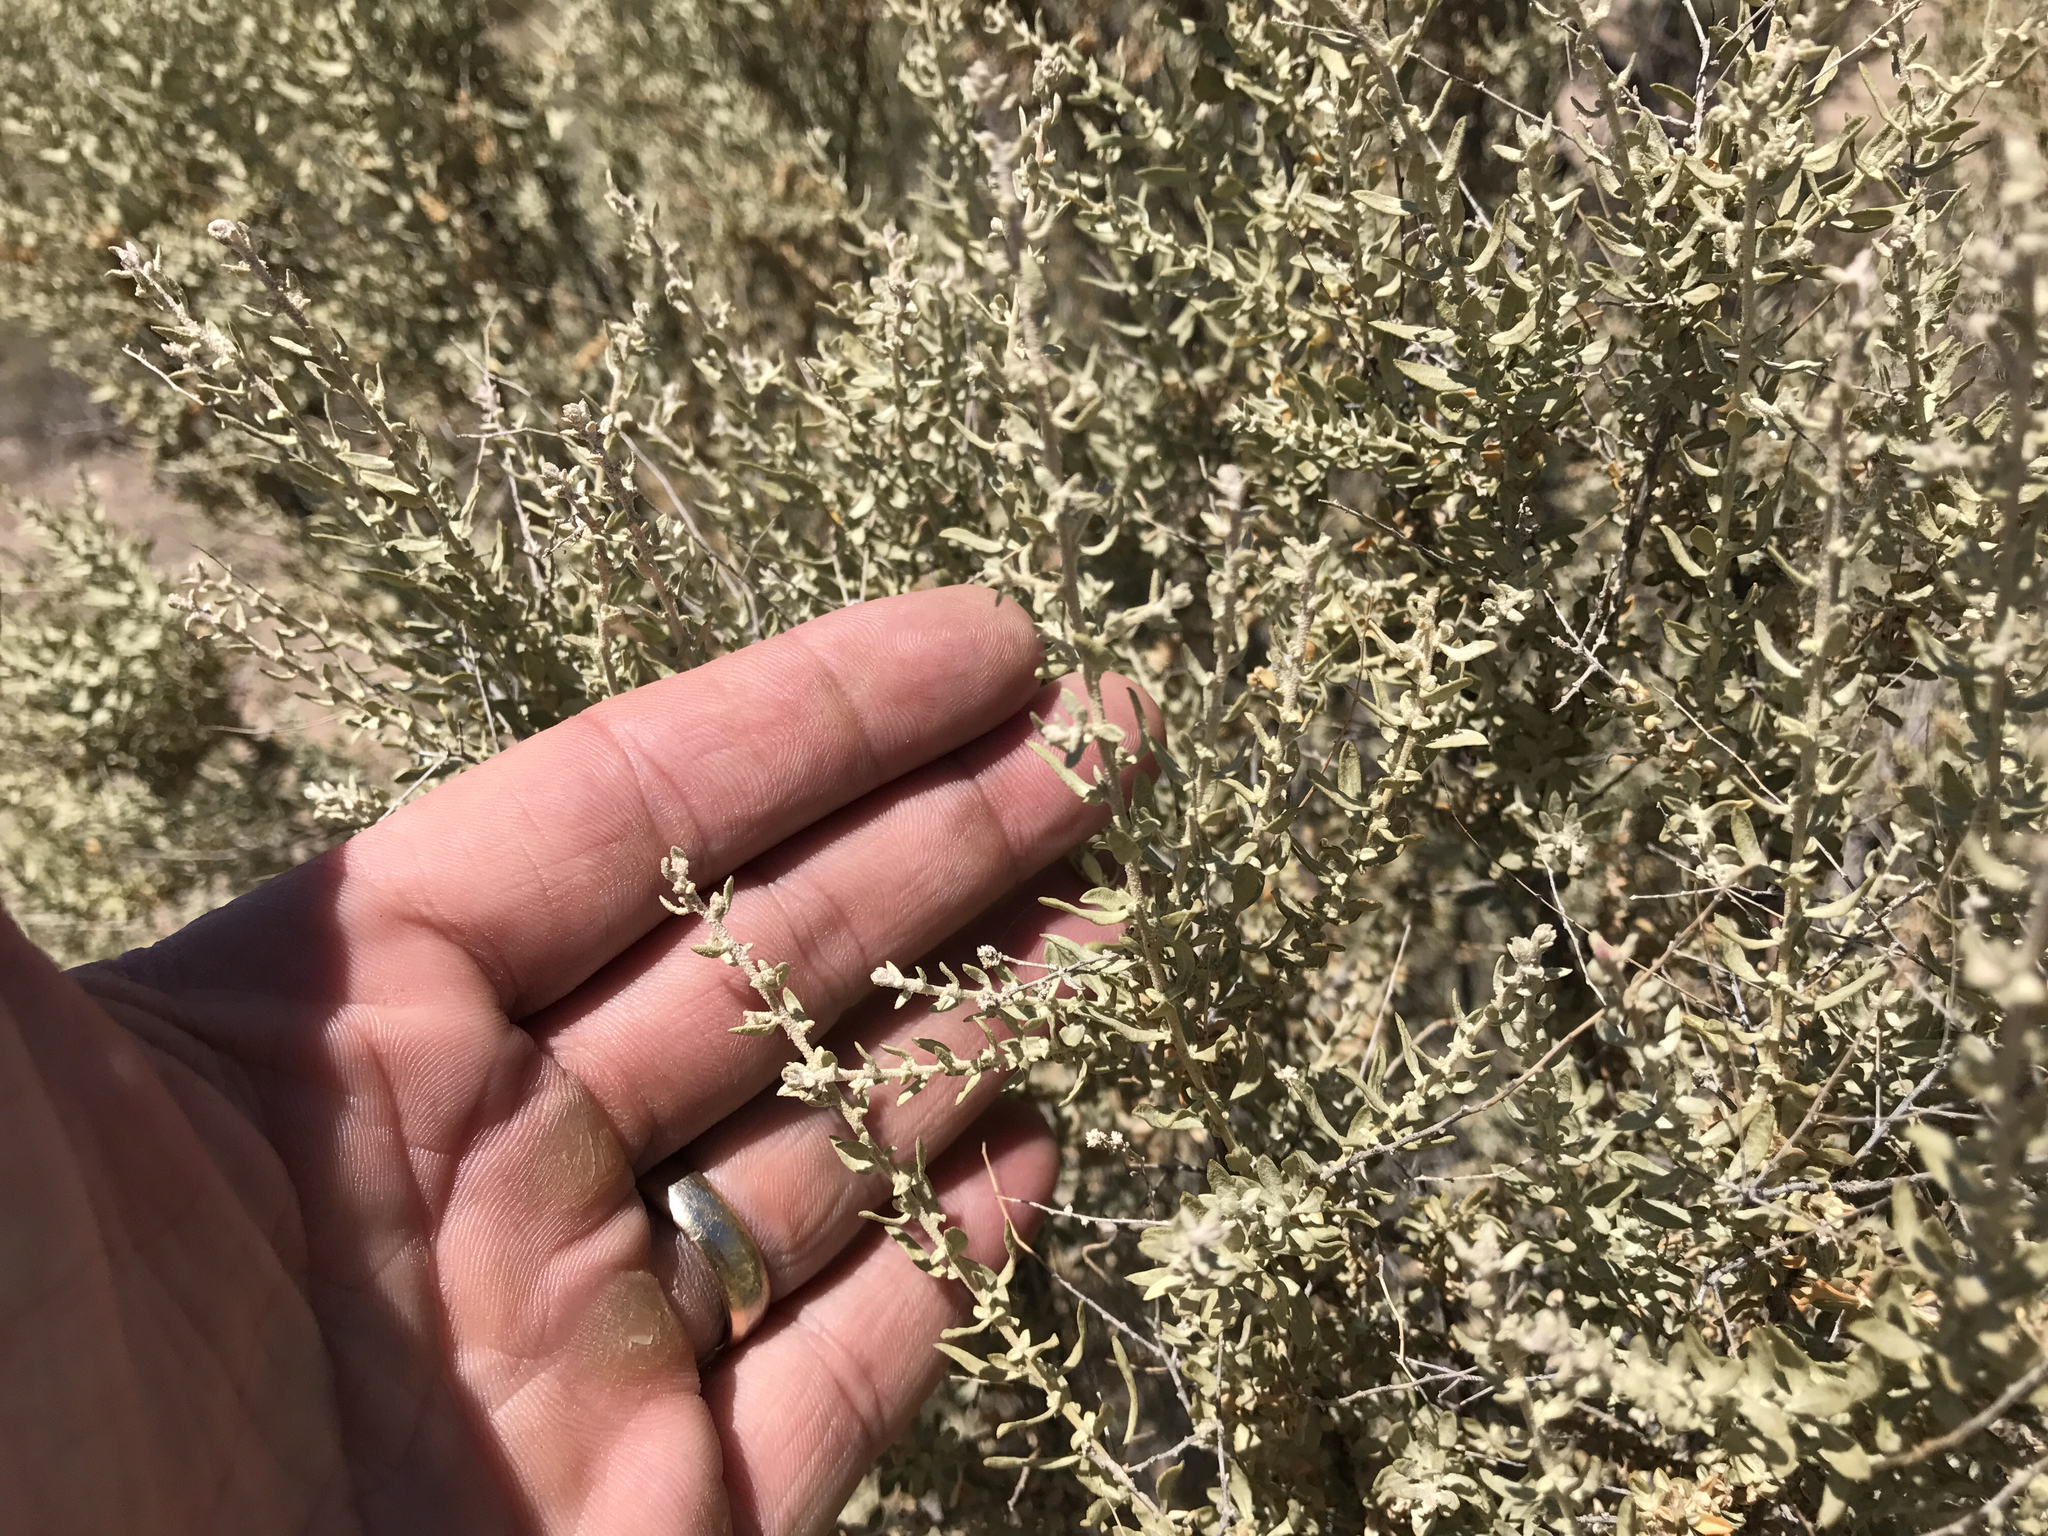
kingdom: Plantae
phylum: Tracheophyta
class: Magnoliopsida
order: Caryophyllales
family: Amaranthaceae
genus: Atriplex
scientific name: Atriplex polycarpa
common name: Desert saltbush
